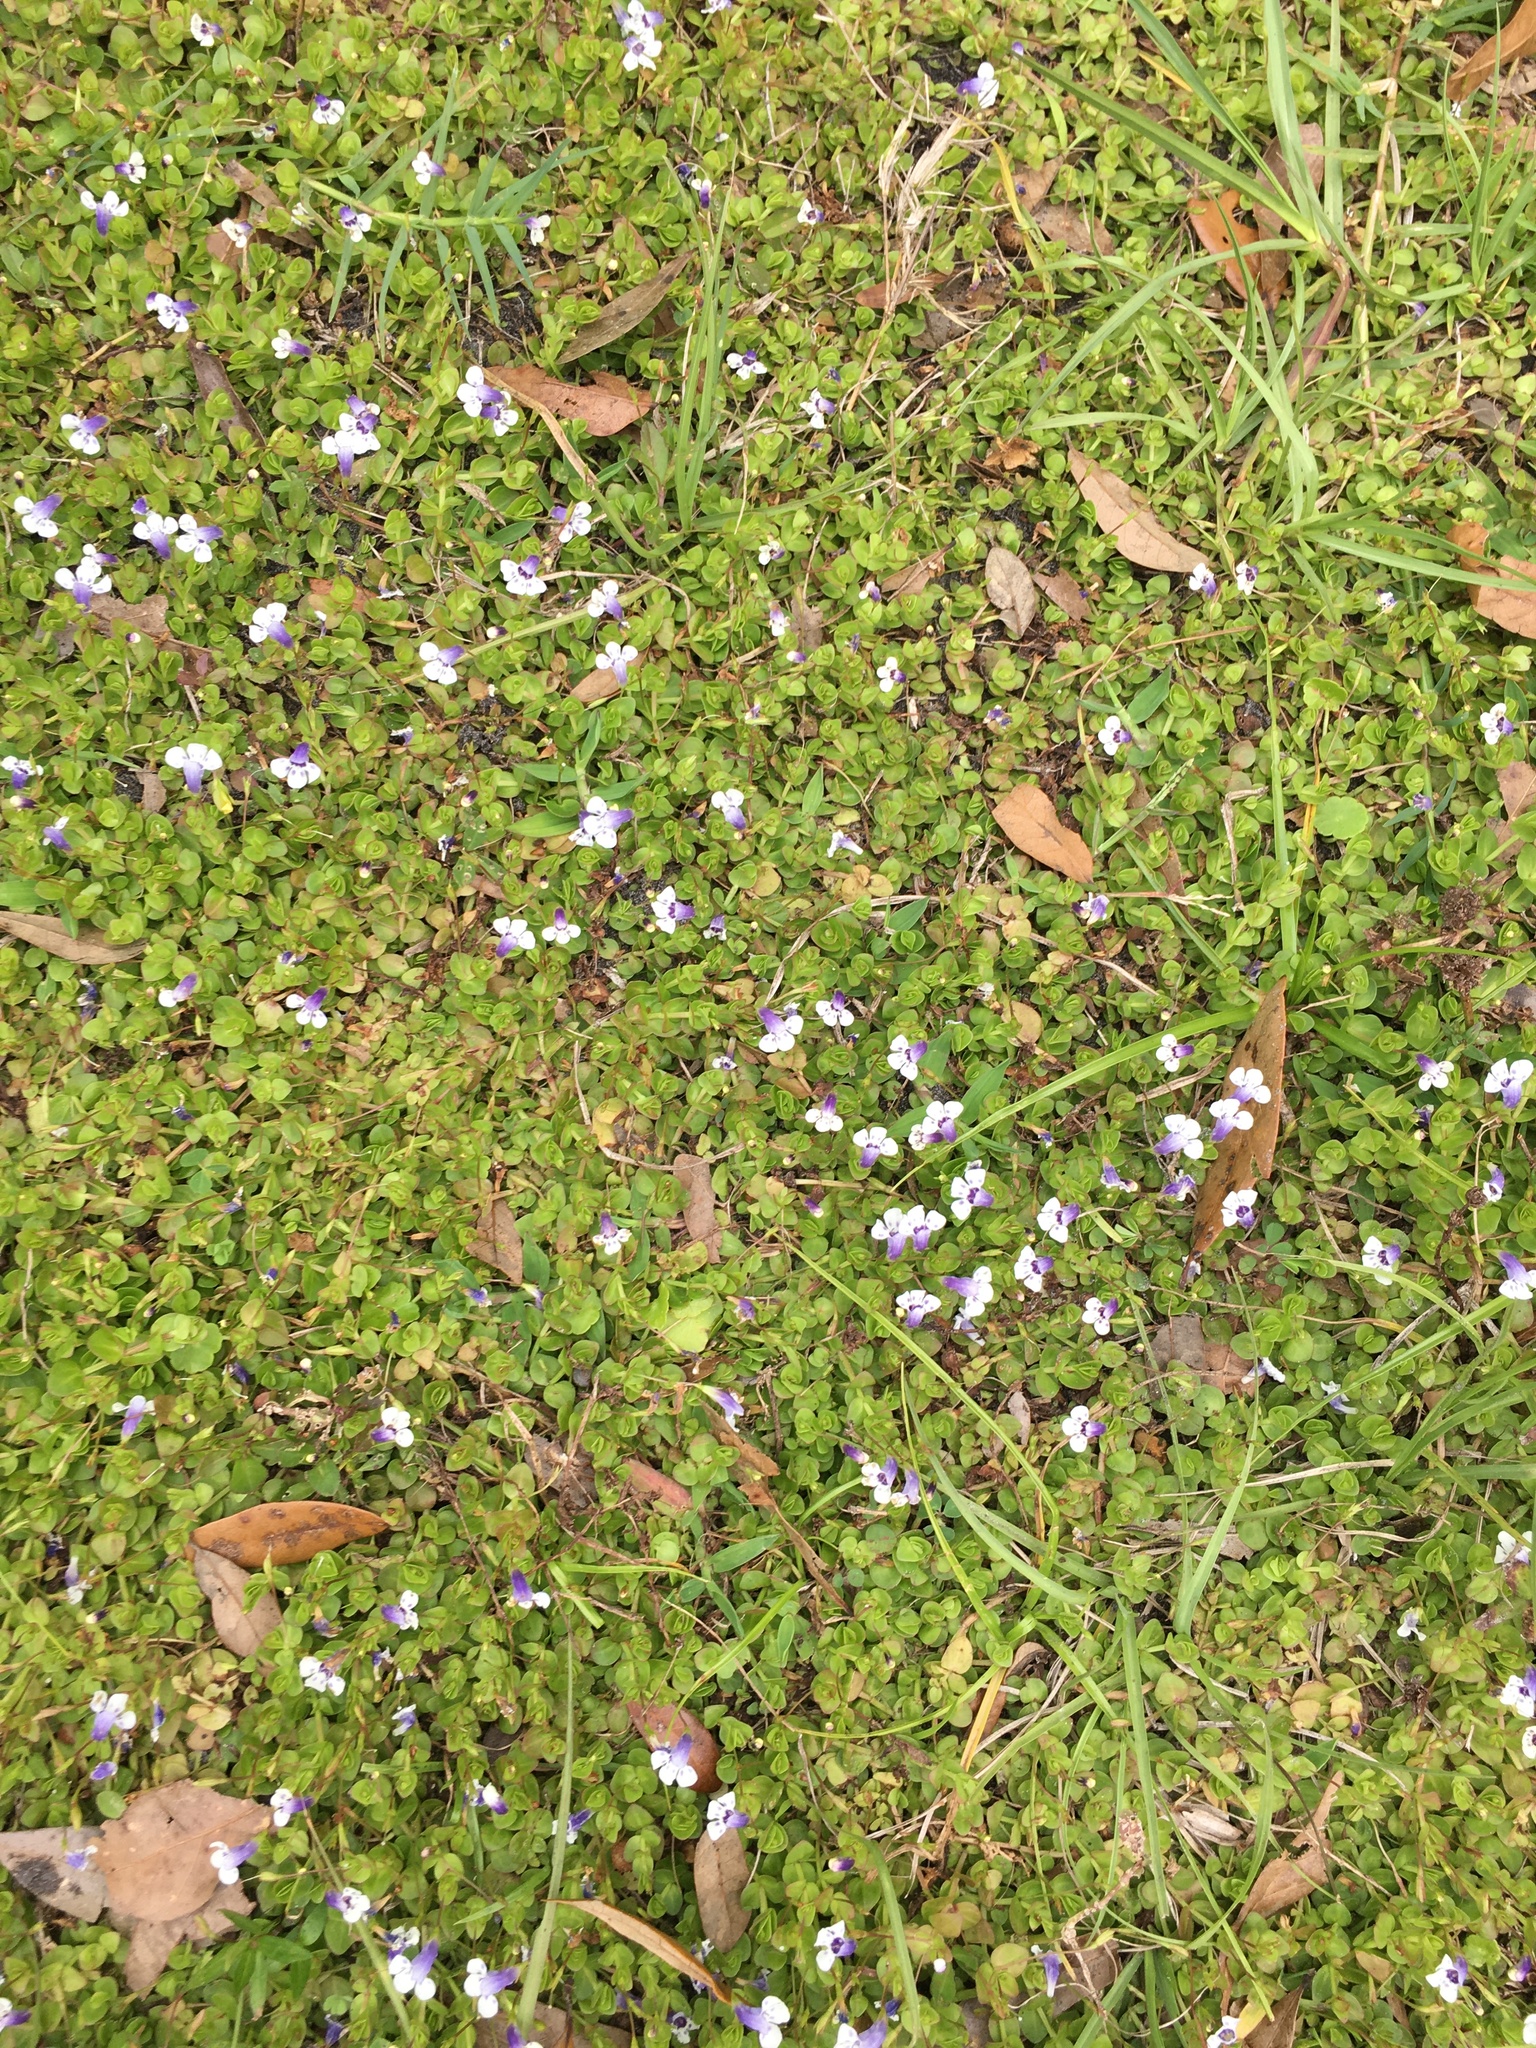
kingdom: Plantae
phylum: Tracheophyta
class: Magnoliopsida
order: Lamiales
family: Linderniaceae
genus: Lindernia
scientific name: Lindernia grandiflora
